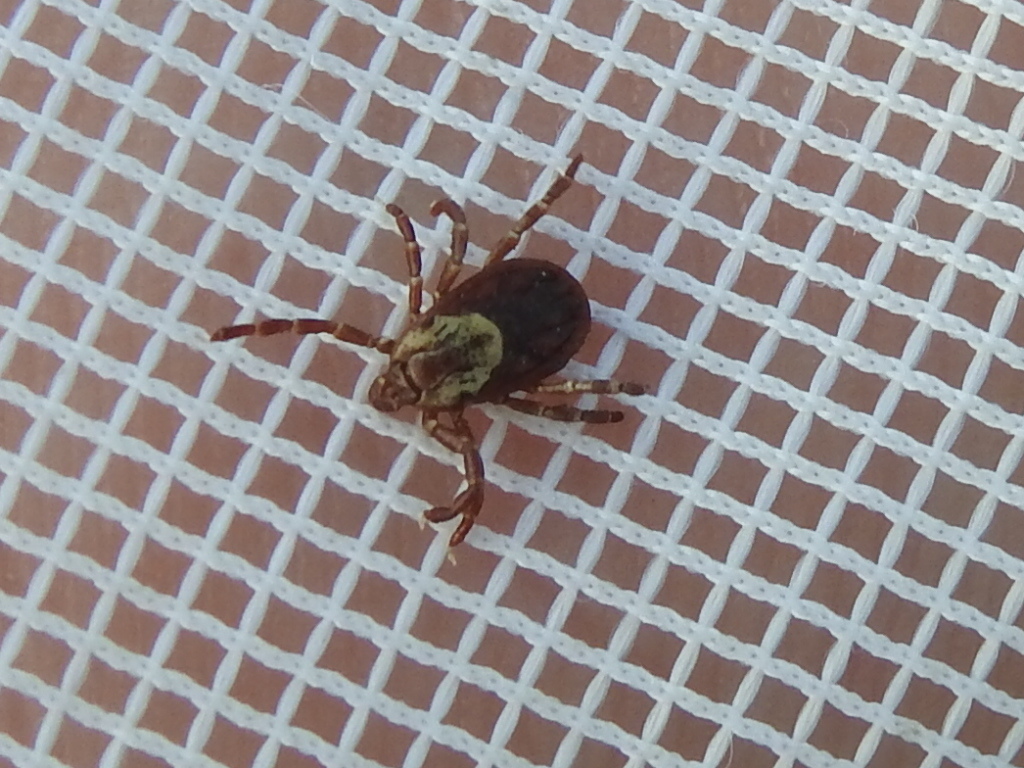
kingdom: Animalia
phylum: Arthropoda
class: Arachnida
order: Ixodida
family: Ixodidae
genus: Dermacentor
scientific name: Dermacentor variabilis
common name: American dog tick
